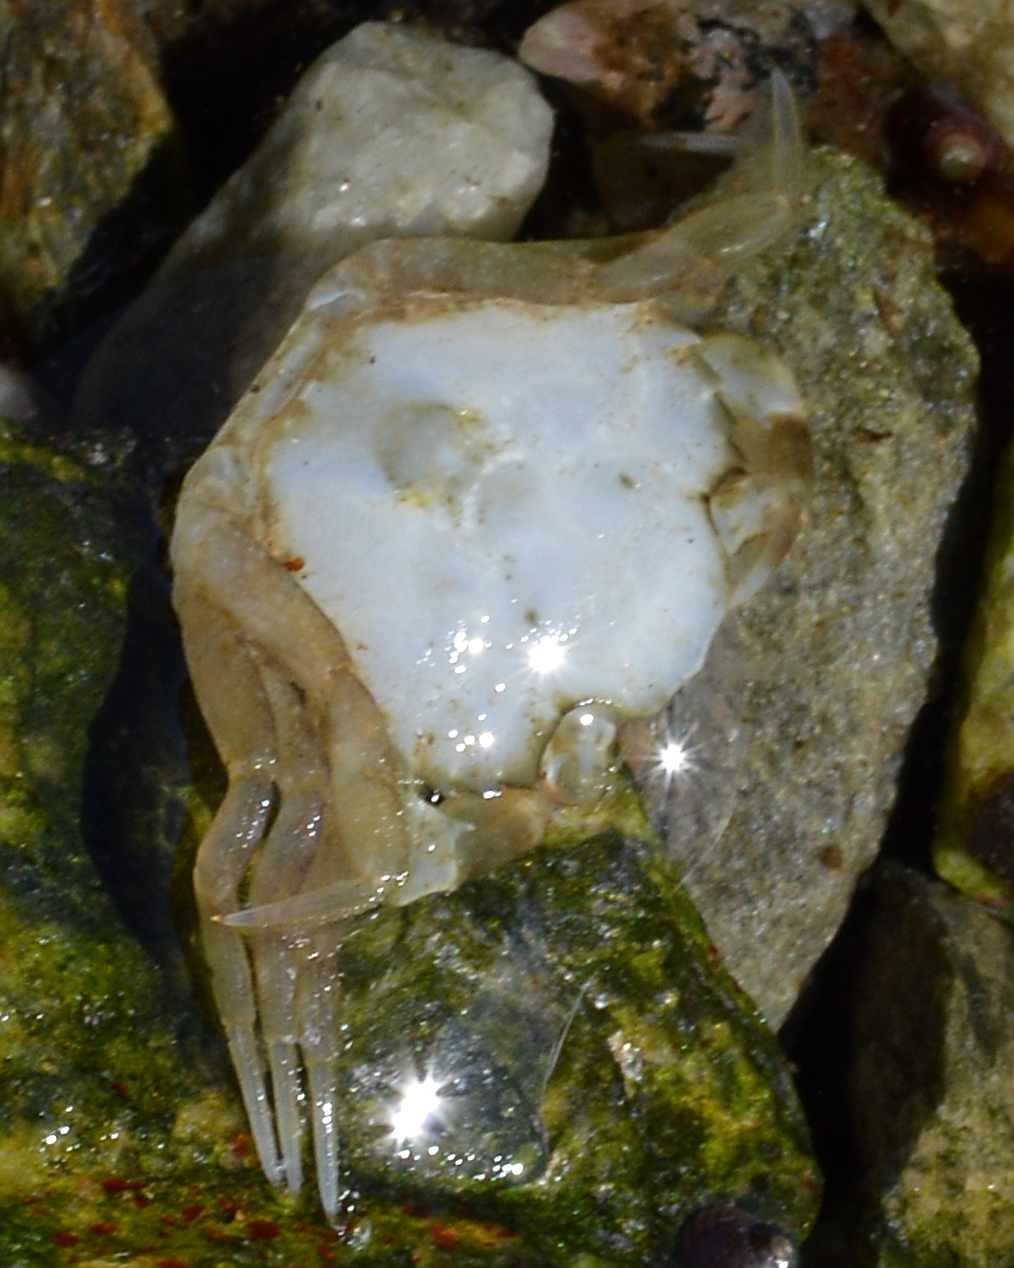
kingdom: Animalia
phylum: Arthropoda
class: Malacostraca
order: Decapoda
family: Carcinidae
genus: Carcinus
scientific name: Carcinus maenas
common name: European green crab
